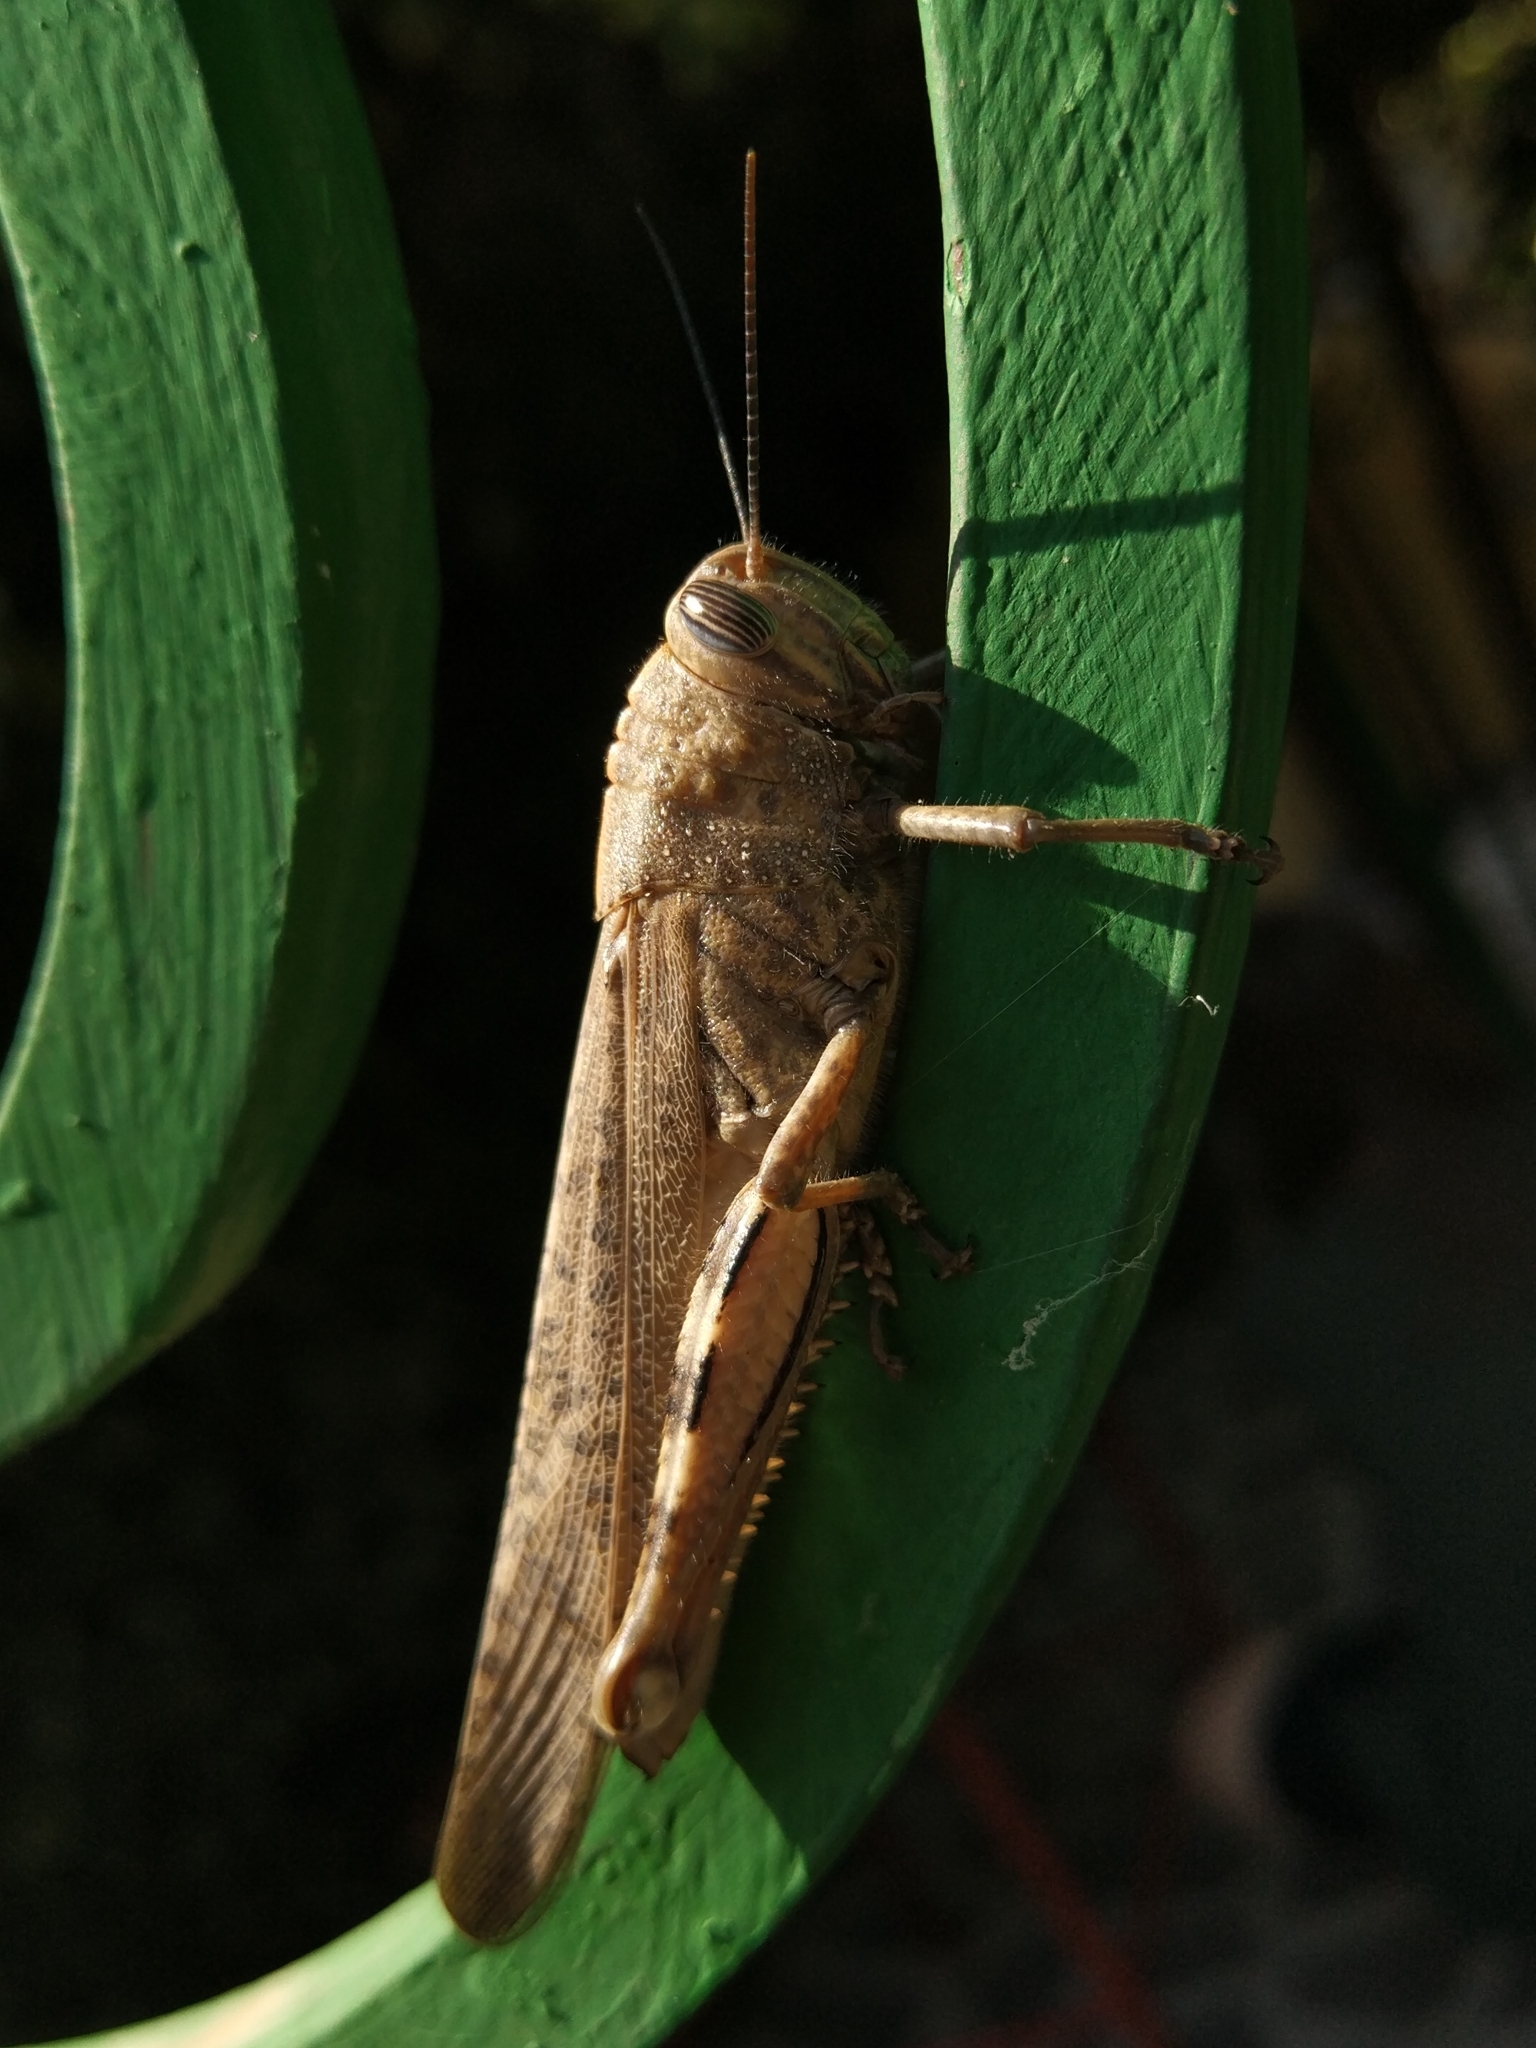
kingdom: Animalia
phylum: Arthropoda
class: Insecta
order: Orthoptera
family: Acrididae
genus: Anacridium
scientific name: Anacridium aegyptium
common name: Egyptian grasshopper
